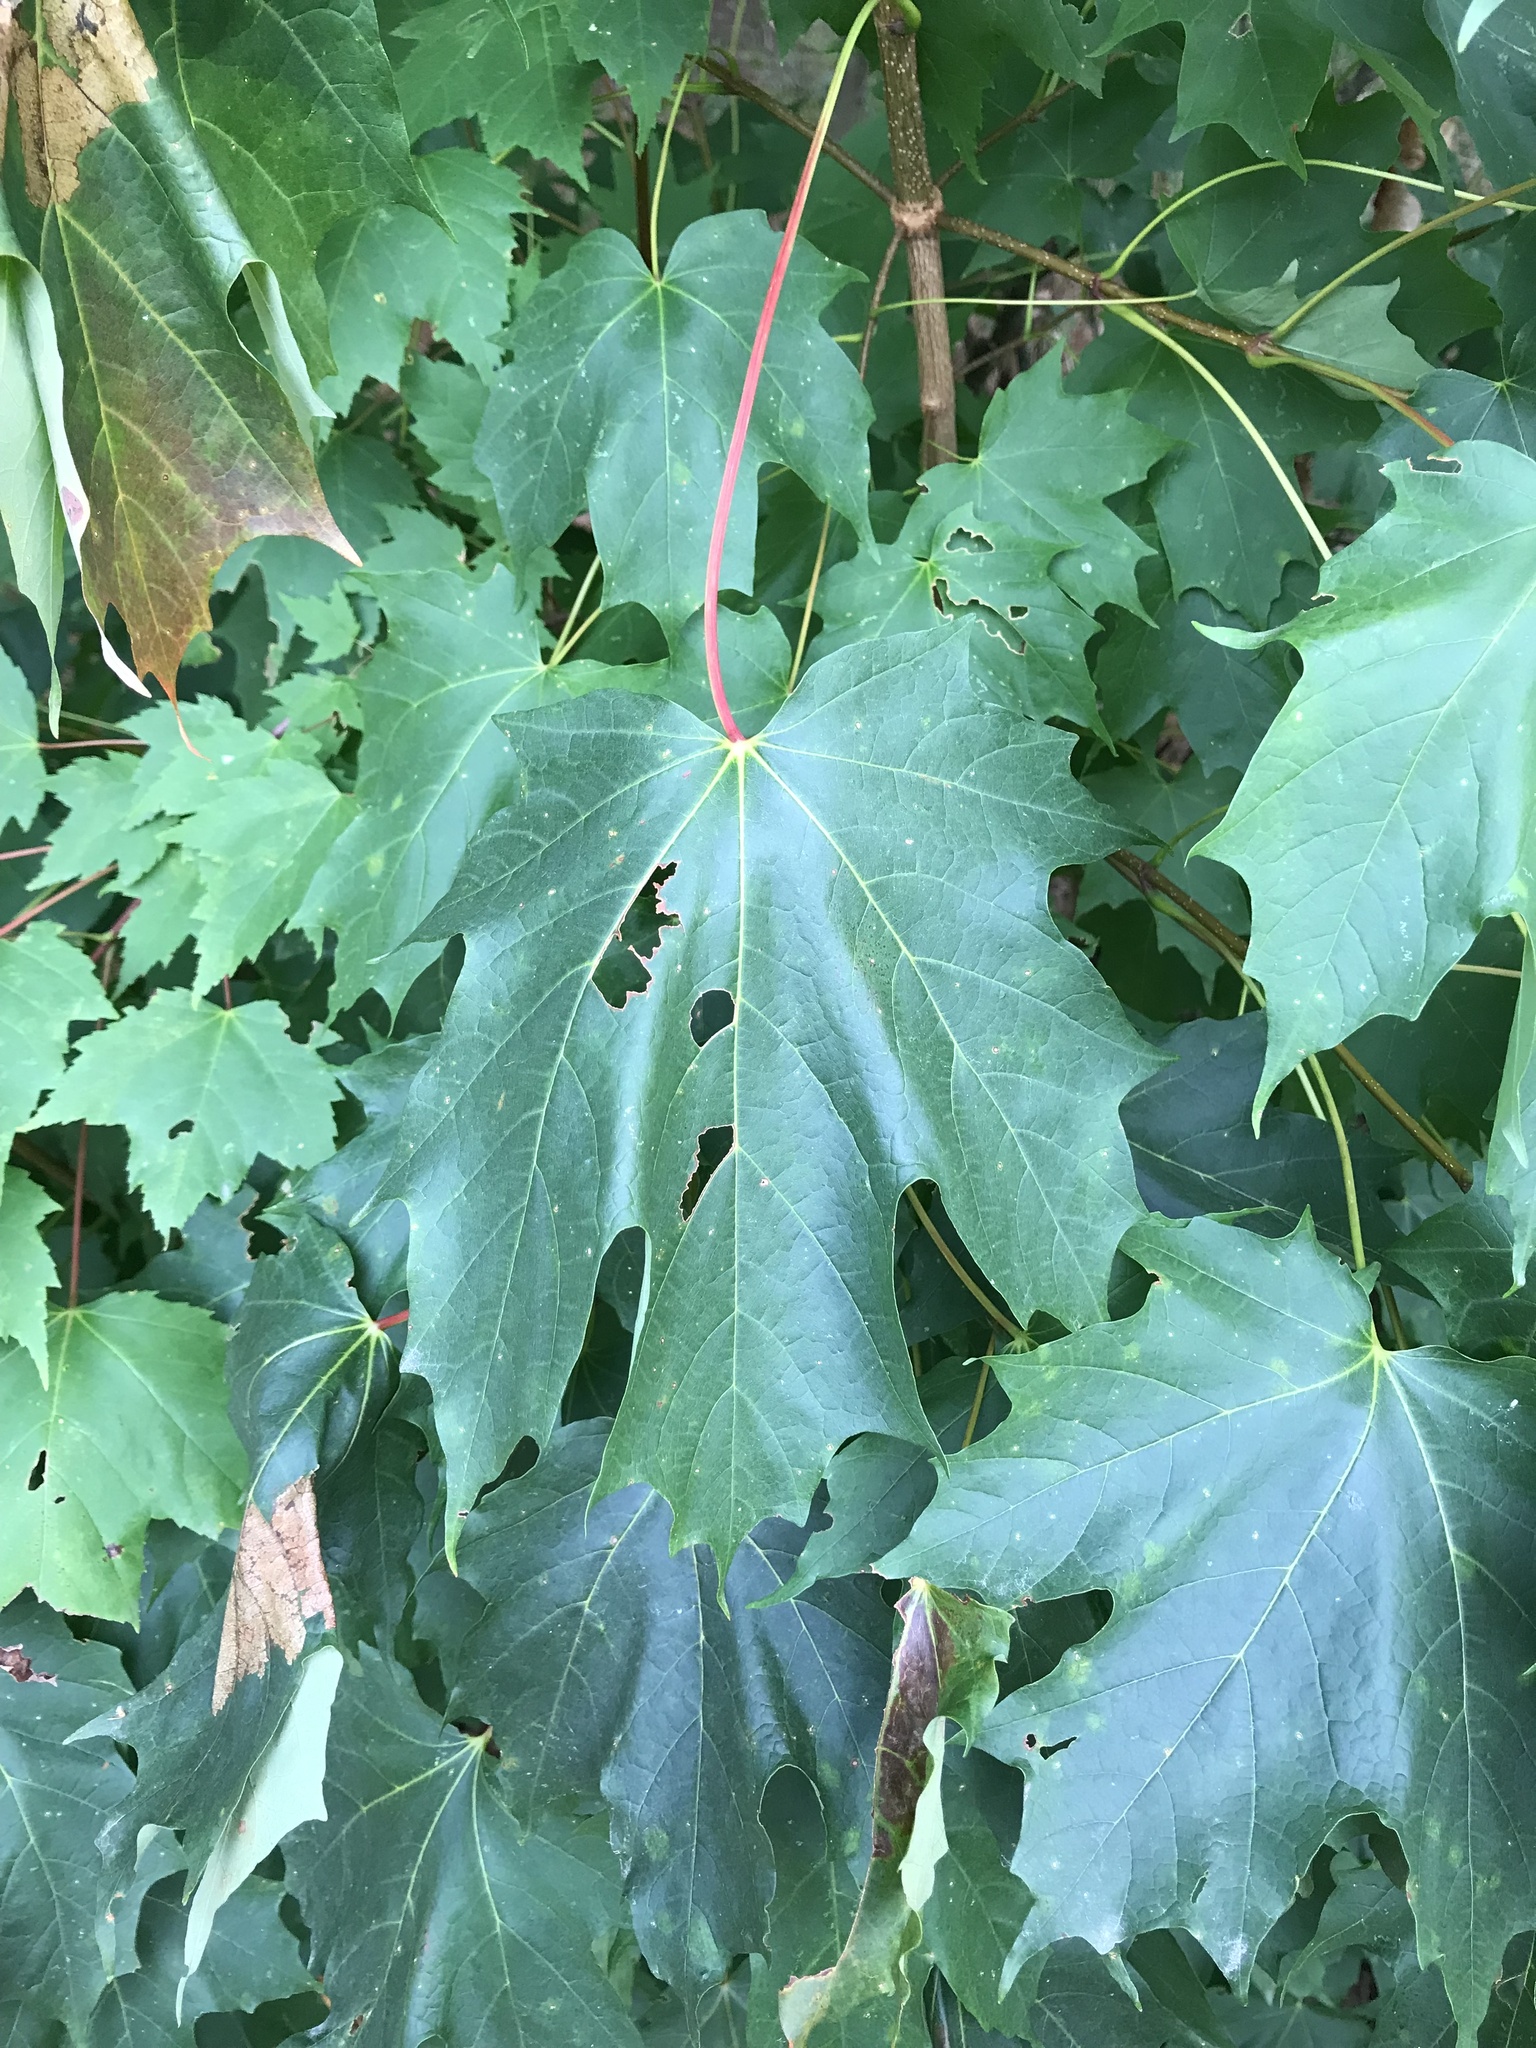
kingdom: Plantae
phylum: Tracheophyta
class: Magnoliopsida
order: Sapindales
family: Sapindaceae
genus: Acer
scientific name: Acer saccharum
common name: Sugar maple
